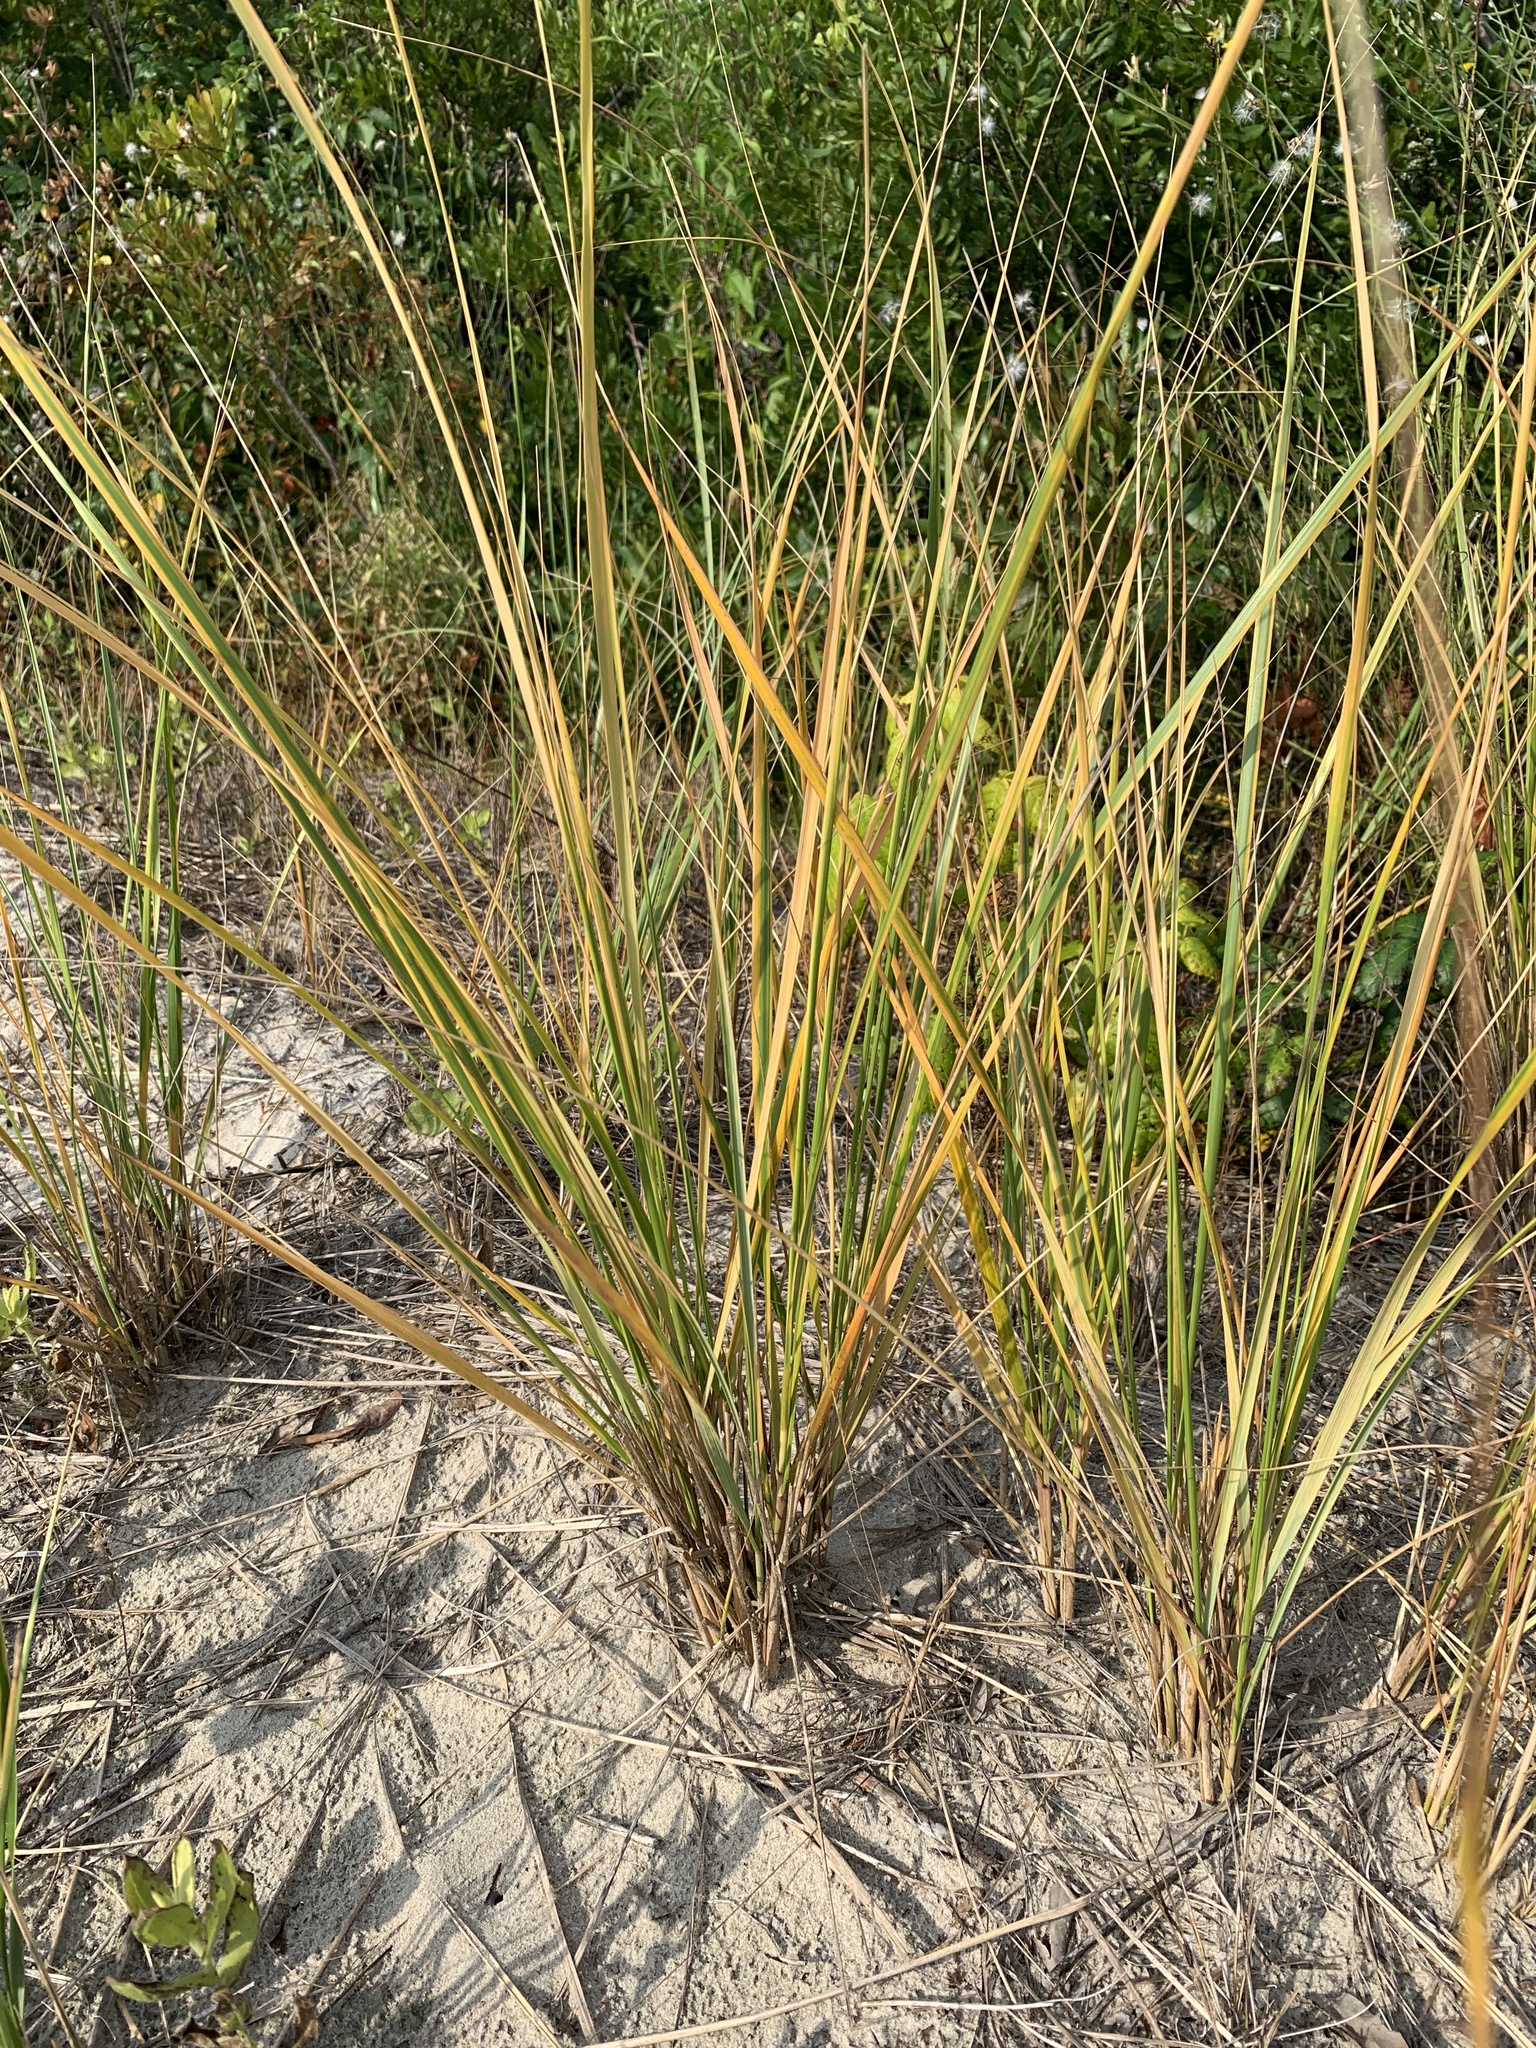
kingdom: Plantae
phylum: Tracheophyta
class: Liliopsida
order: Poales
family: Poaceae
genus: Calamagrostis
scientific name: Calamagrostis breviligulata
